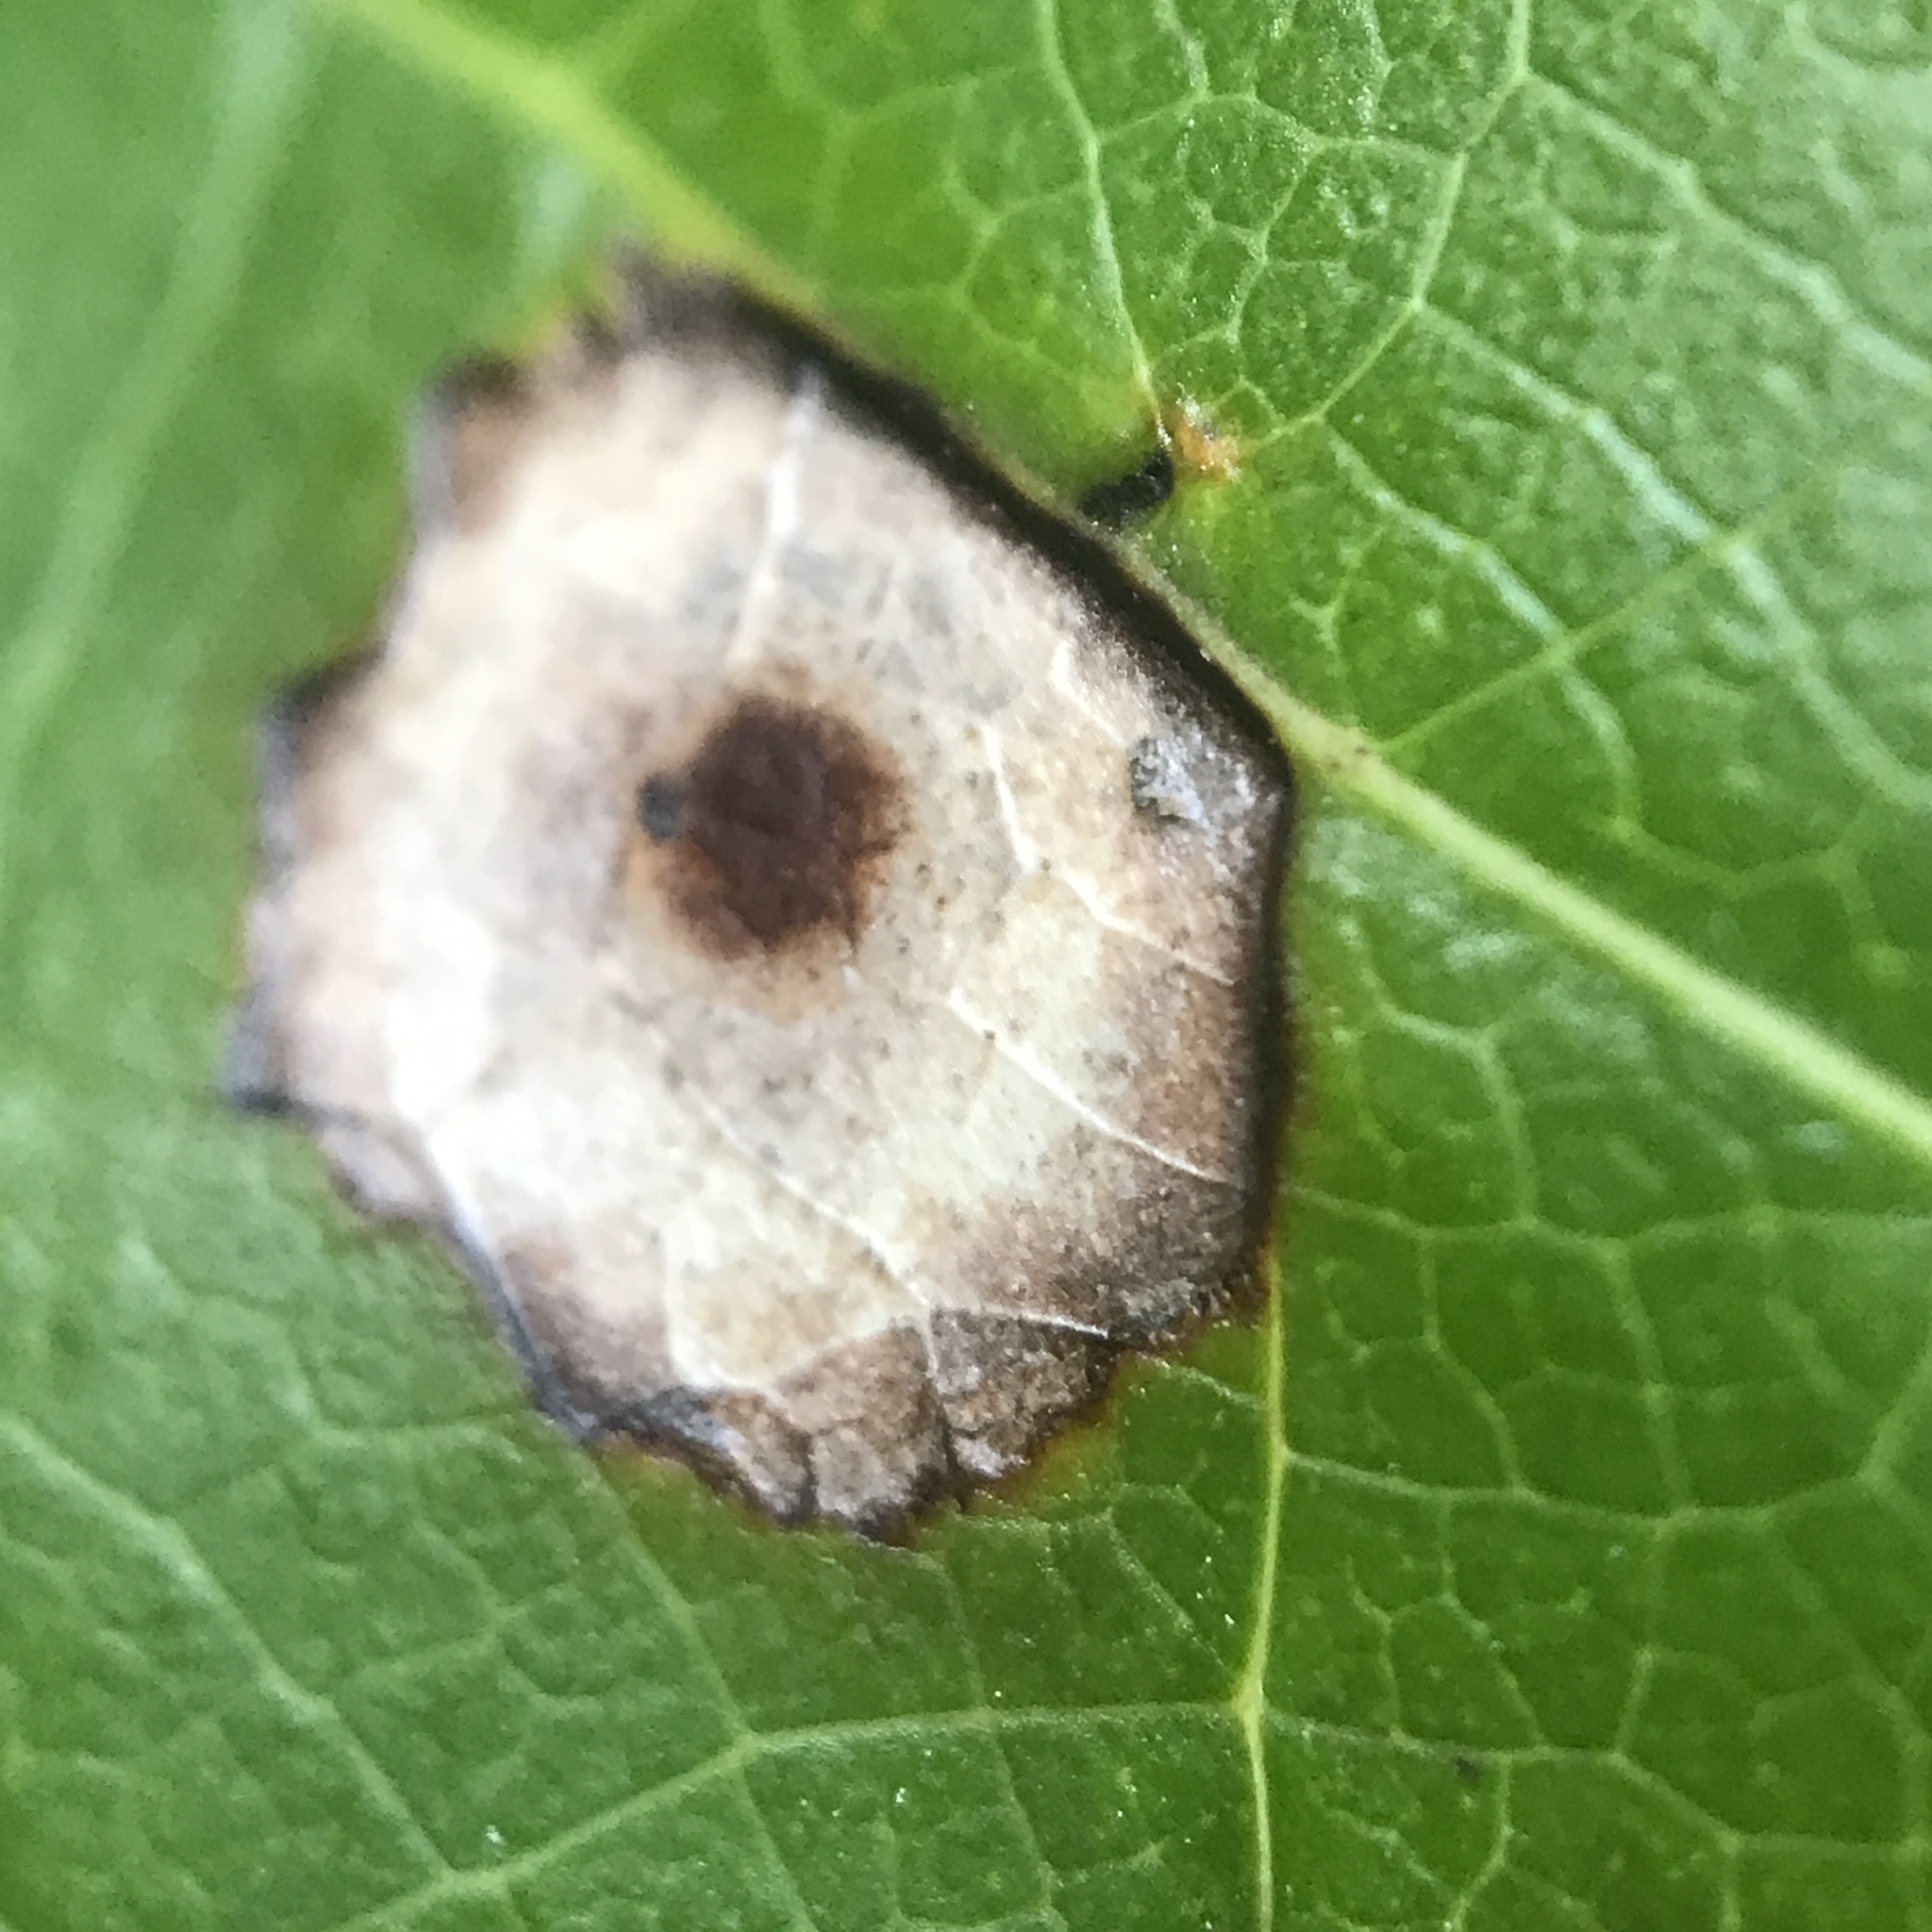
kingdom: Animalia
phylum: Arthropoda
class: Insecta
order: Diptera
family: Cecidomyiidae
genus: Resseliella
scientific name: Resseliella liriodendri
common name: Tulip tree leaf spot gall midge
